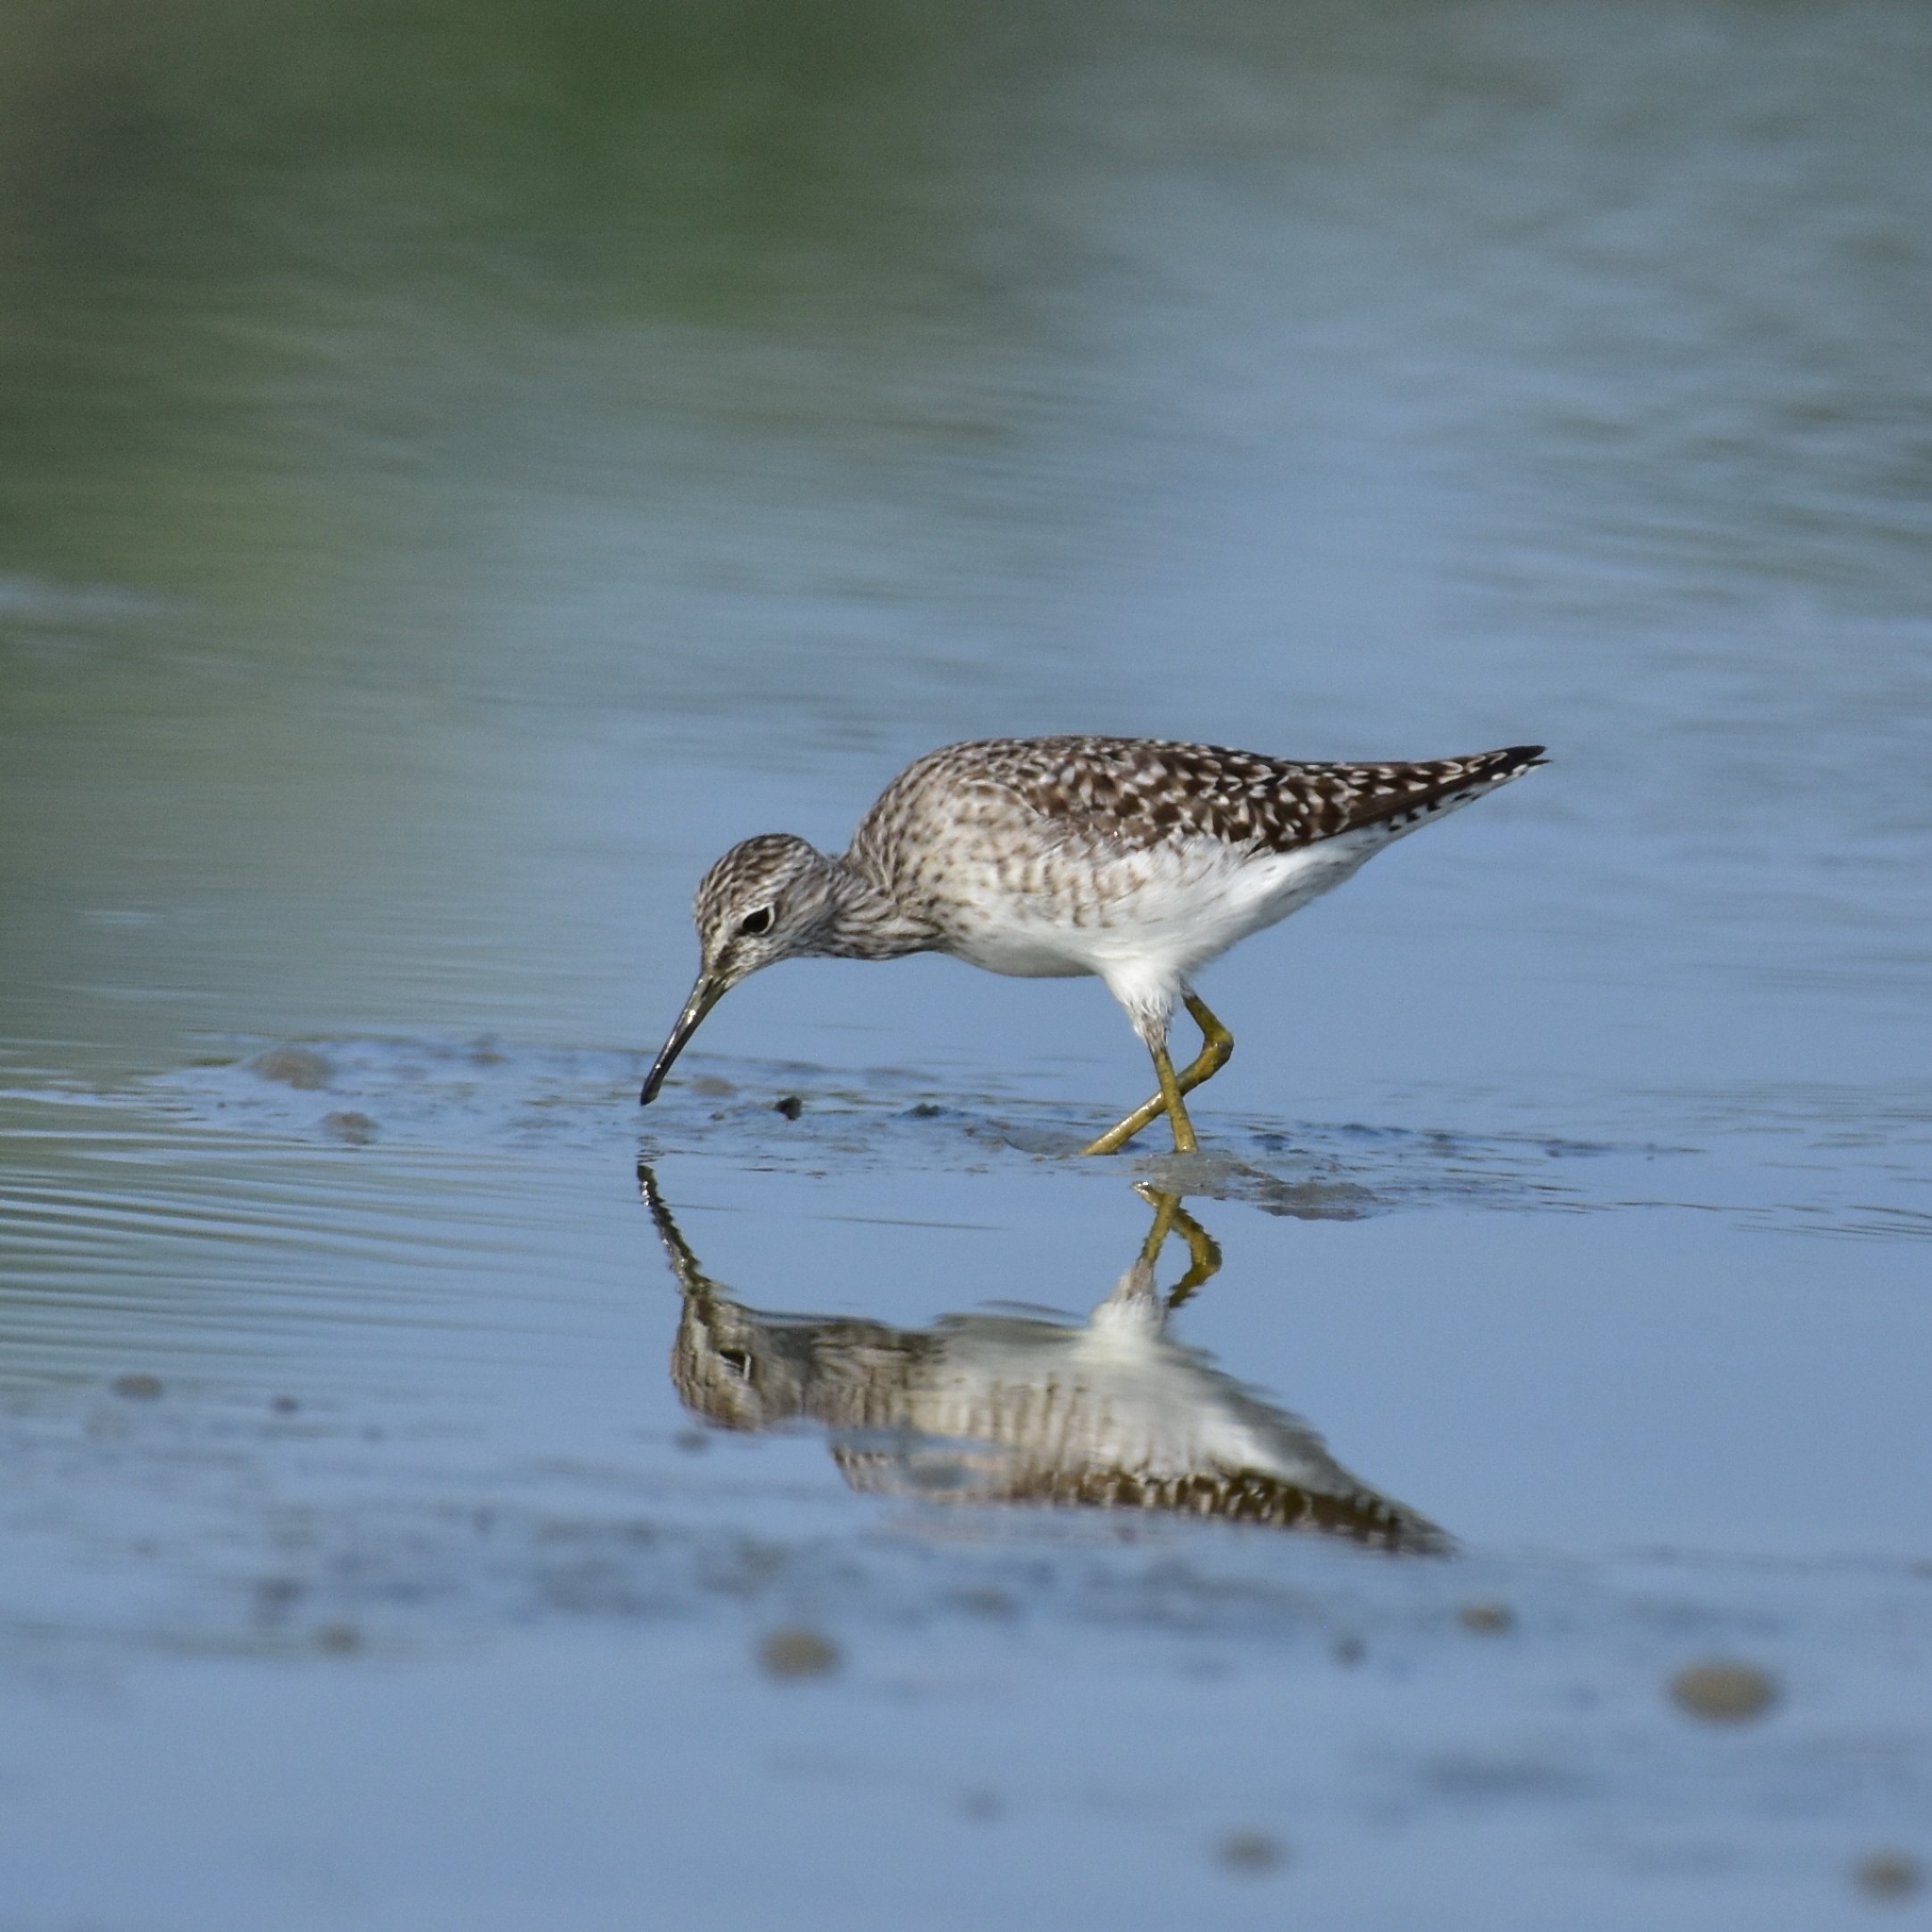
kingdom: Animalia
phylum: Chordata
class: Aves
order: Charadriiformes
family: Scolopacidae
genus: Tringa
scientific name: Tringa glareola
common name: Wood sandpiper
